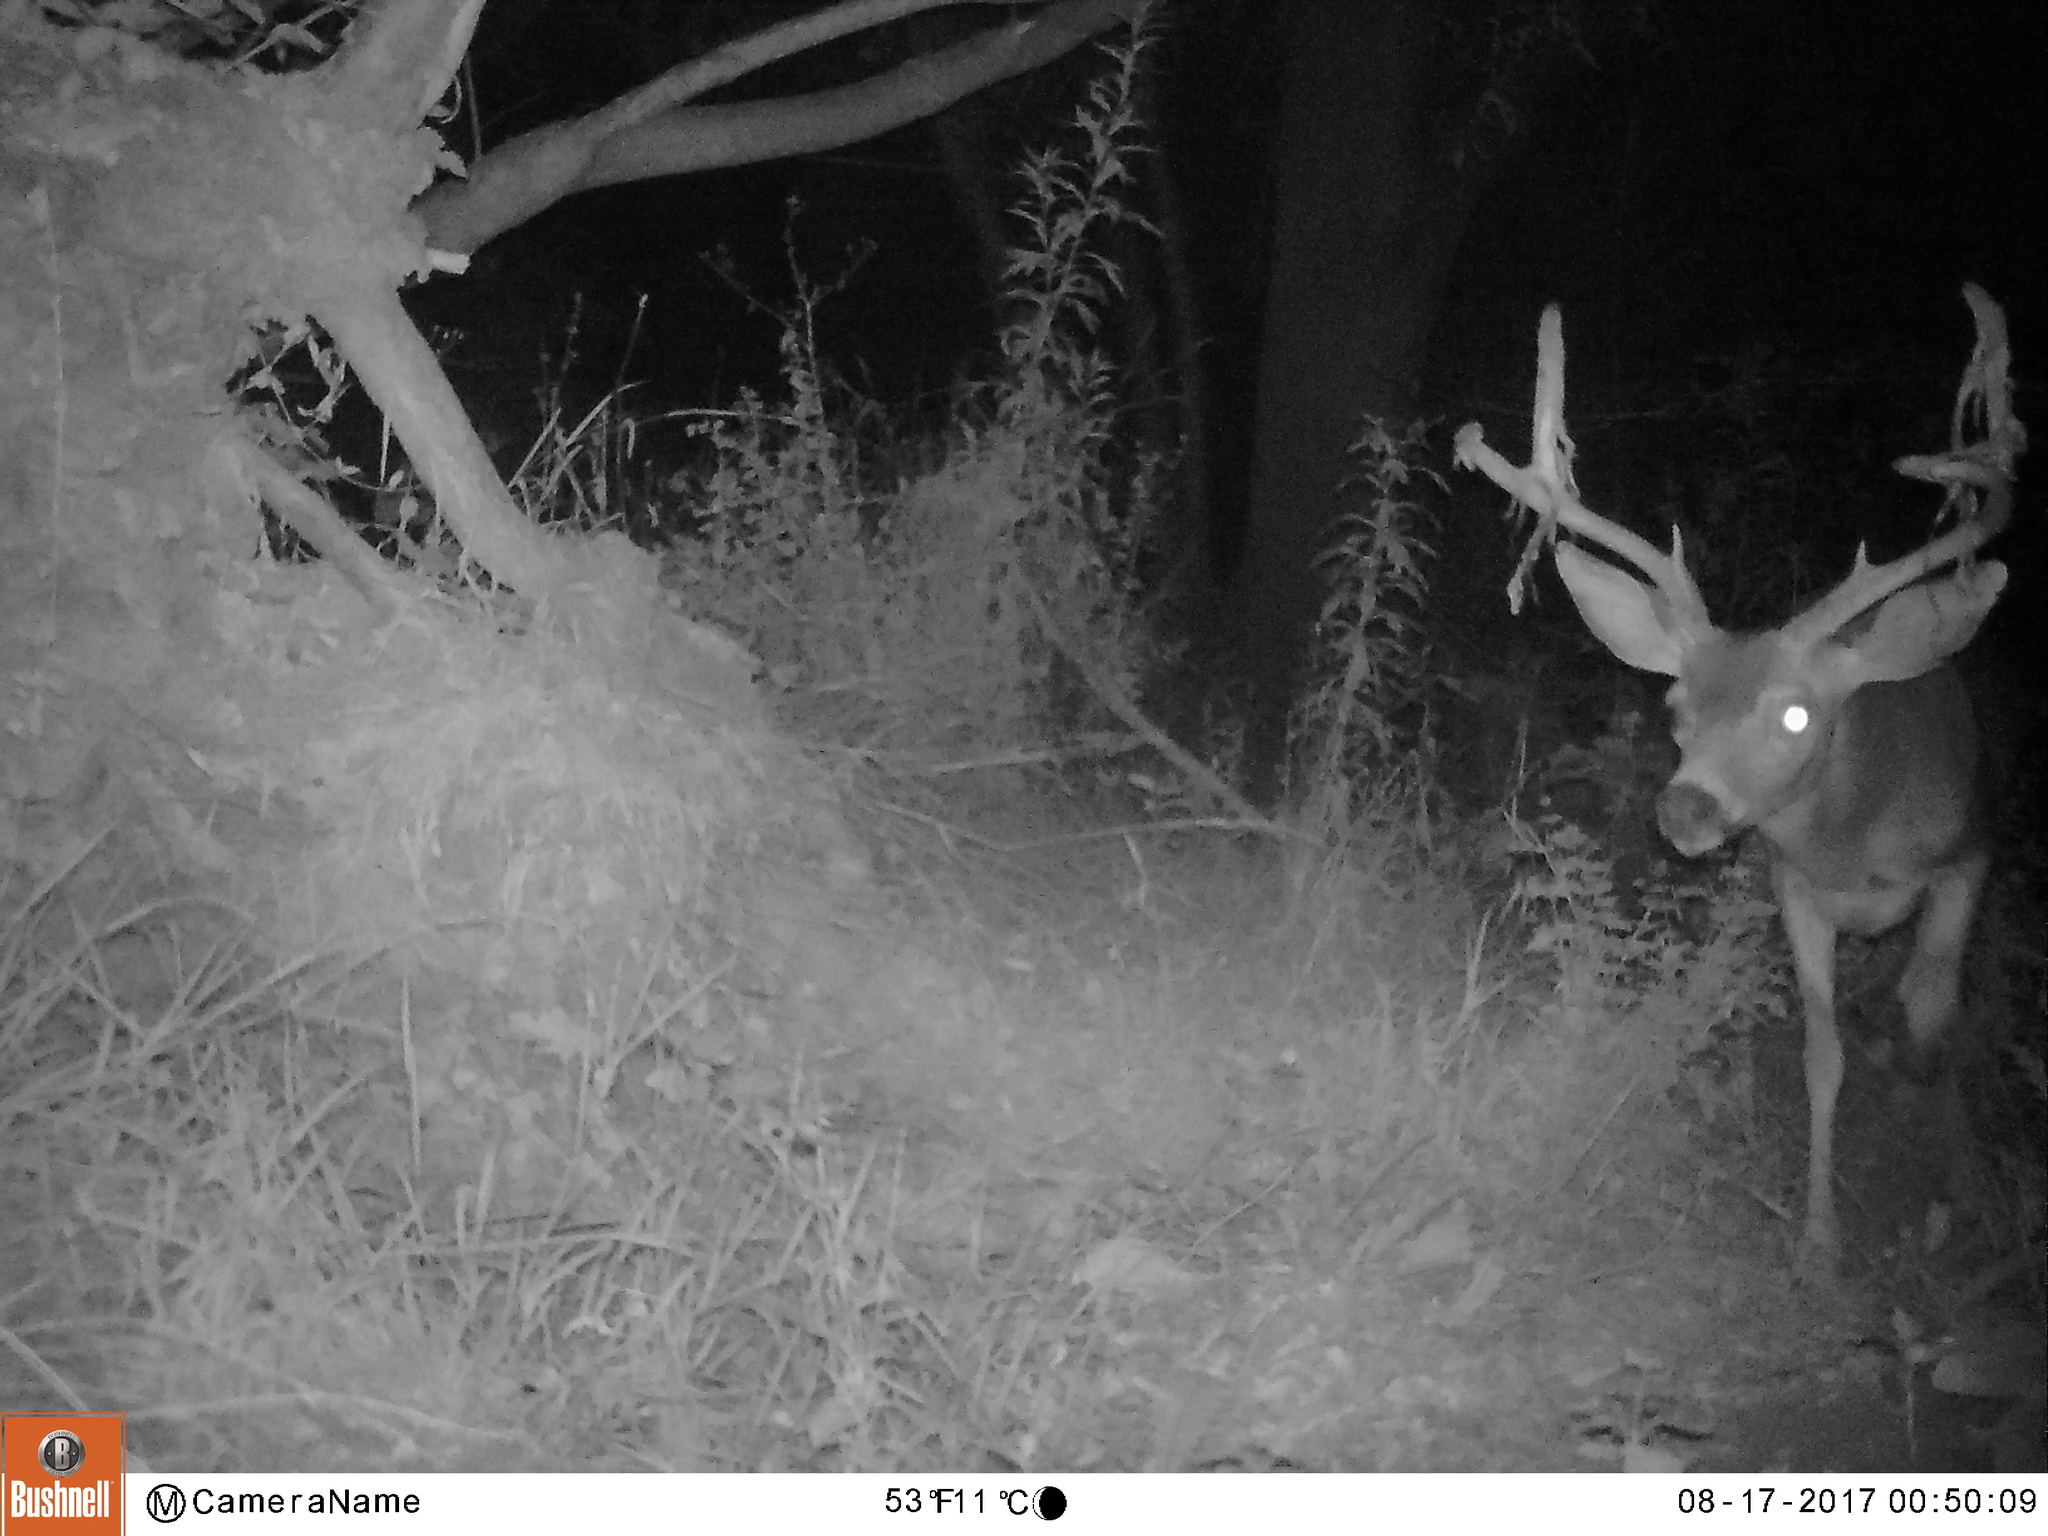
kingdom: Animalia
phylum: Chordata
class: Mammalia
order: Artiodactyla
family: Cervidae
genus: Odocoileus
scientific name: Odocoileus hemionus
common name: Mule deer
